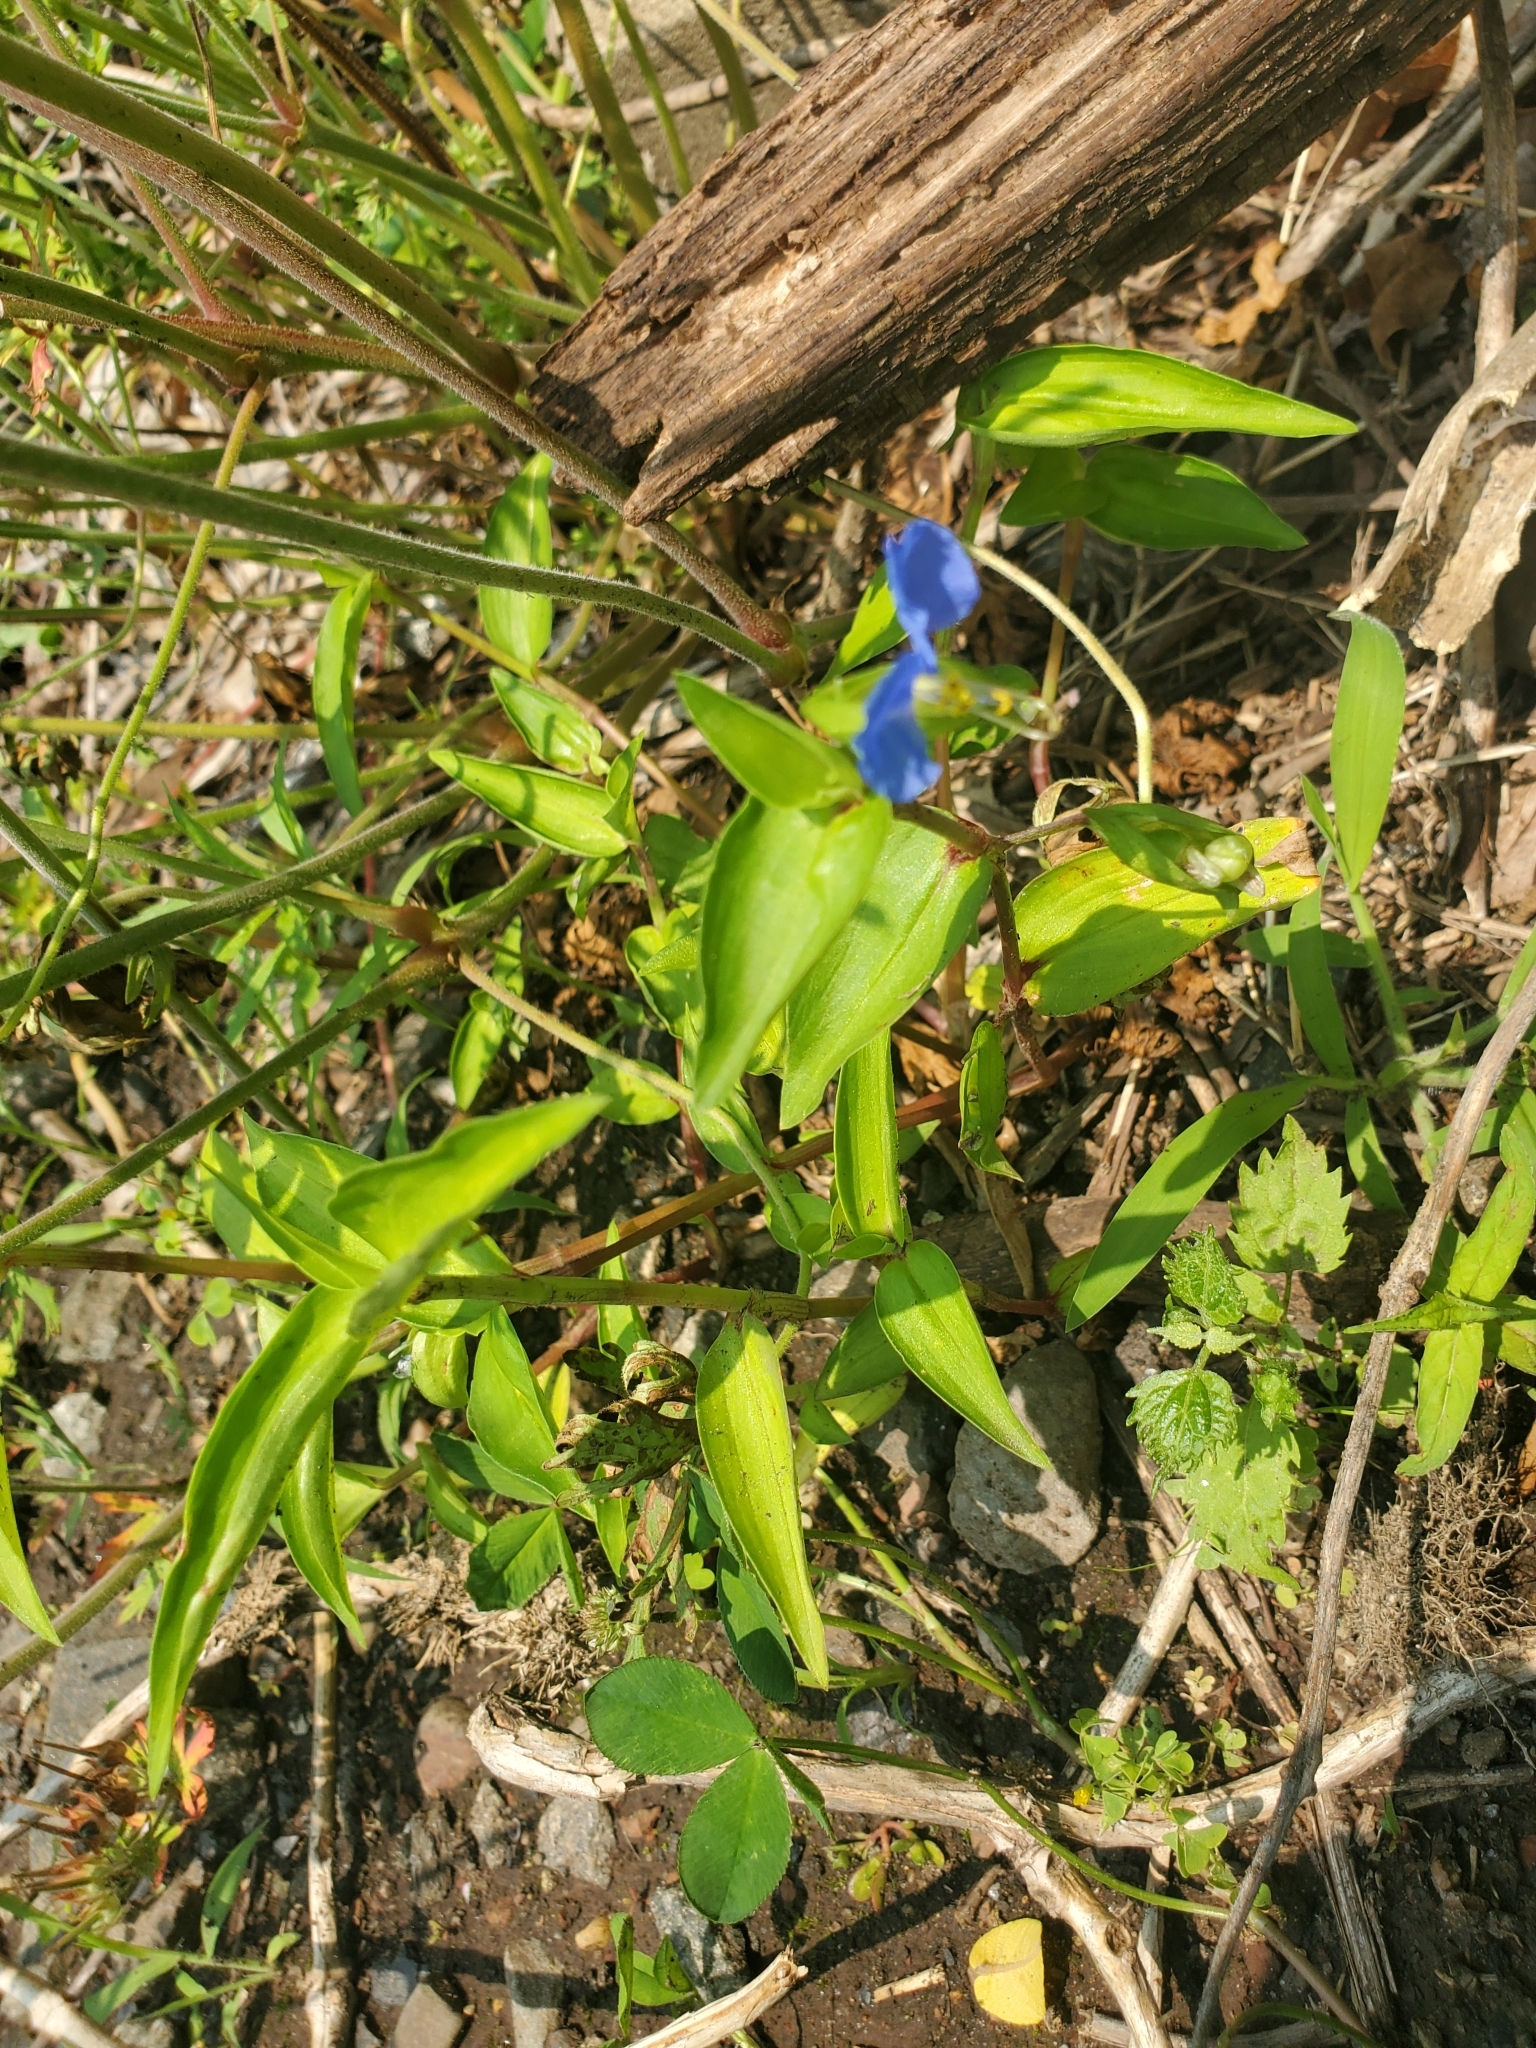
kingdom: Plantae
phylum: Tracheophyta
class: Liliopsida
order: Commelinales
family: Commelinaceae
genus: Commelina
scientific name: Commelina communis
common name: Asiatic dayflower
